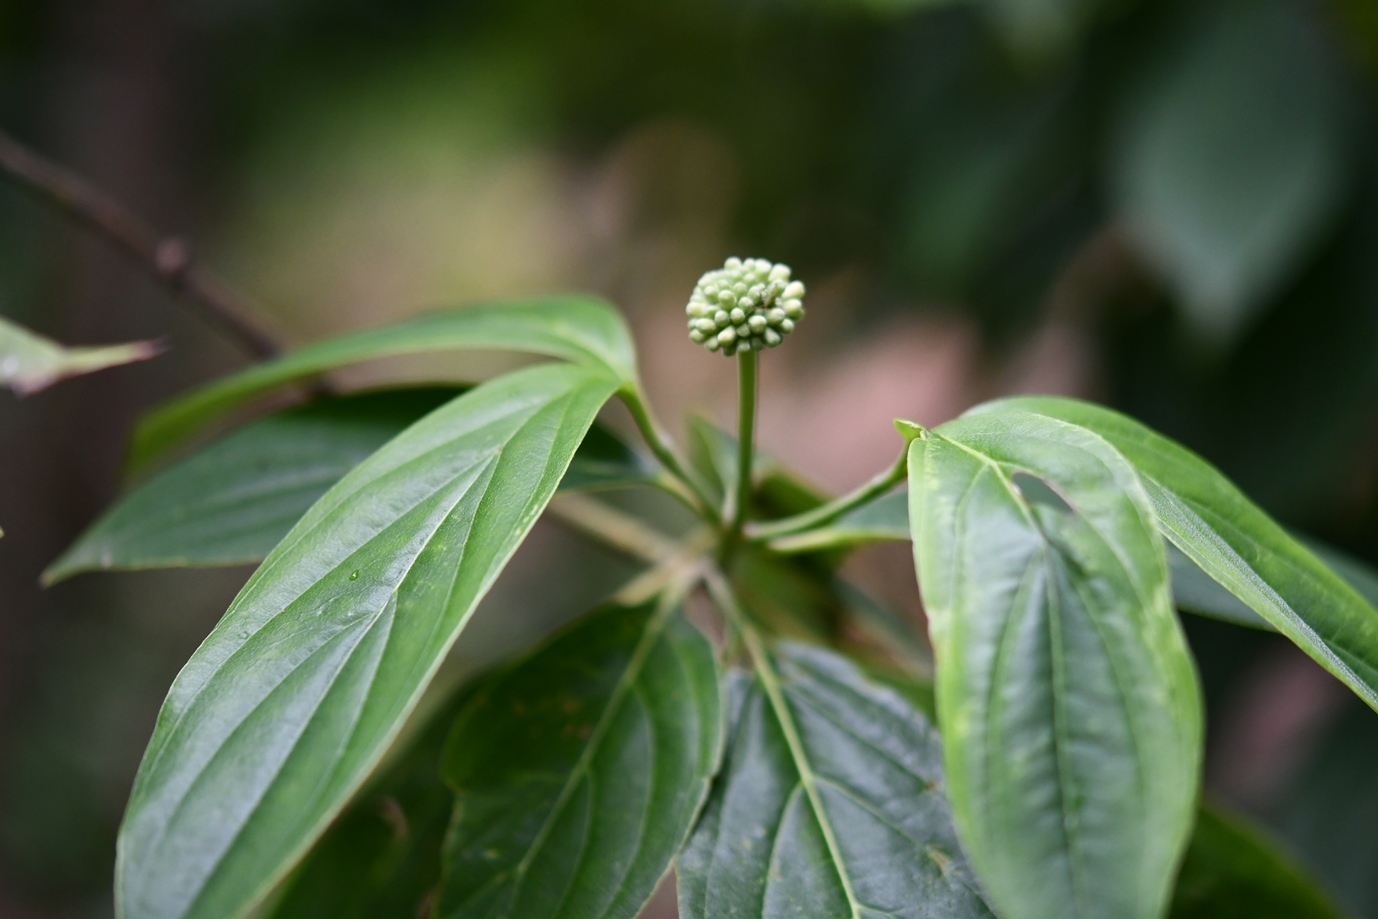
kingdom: Plantae
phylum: Tracheophyta
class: Magnoliopsida
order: Cornales
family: Cornaceae
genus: Cornus
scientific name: Cornus disciflora
